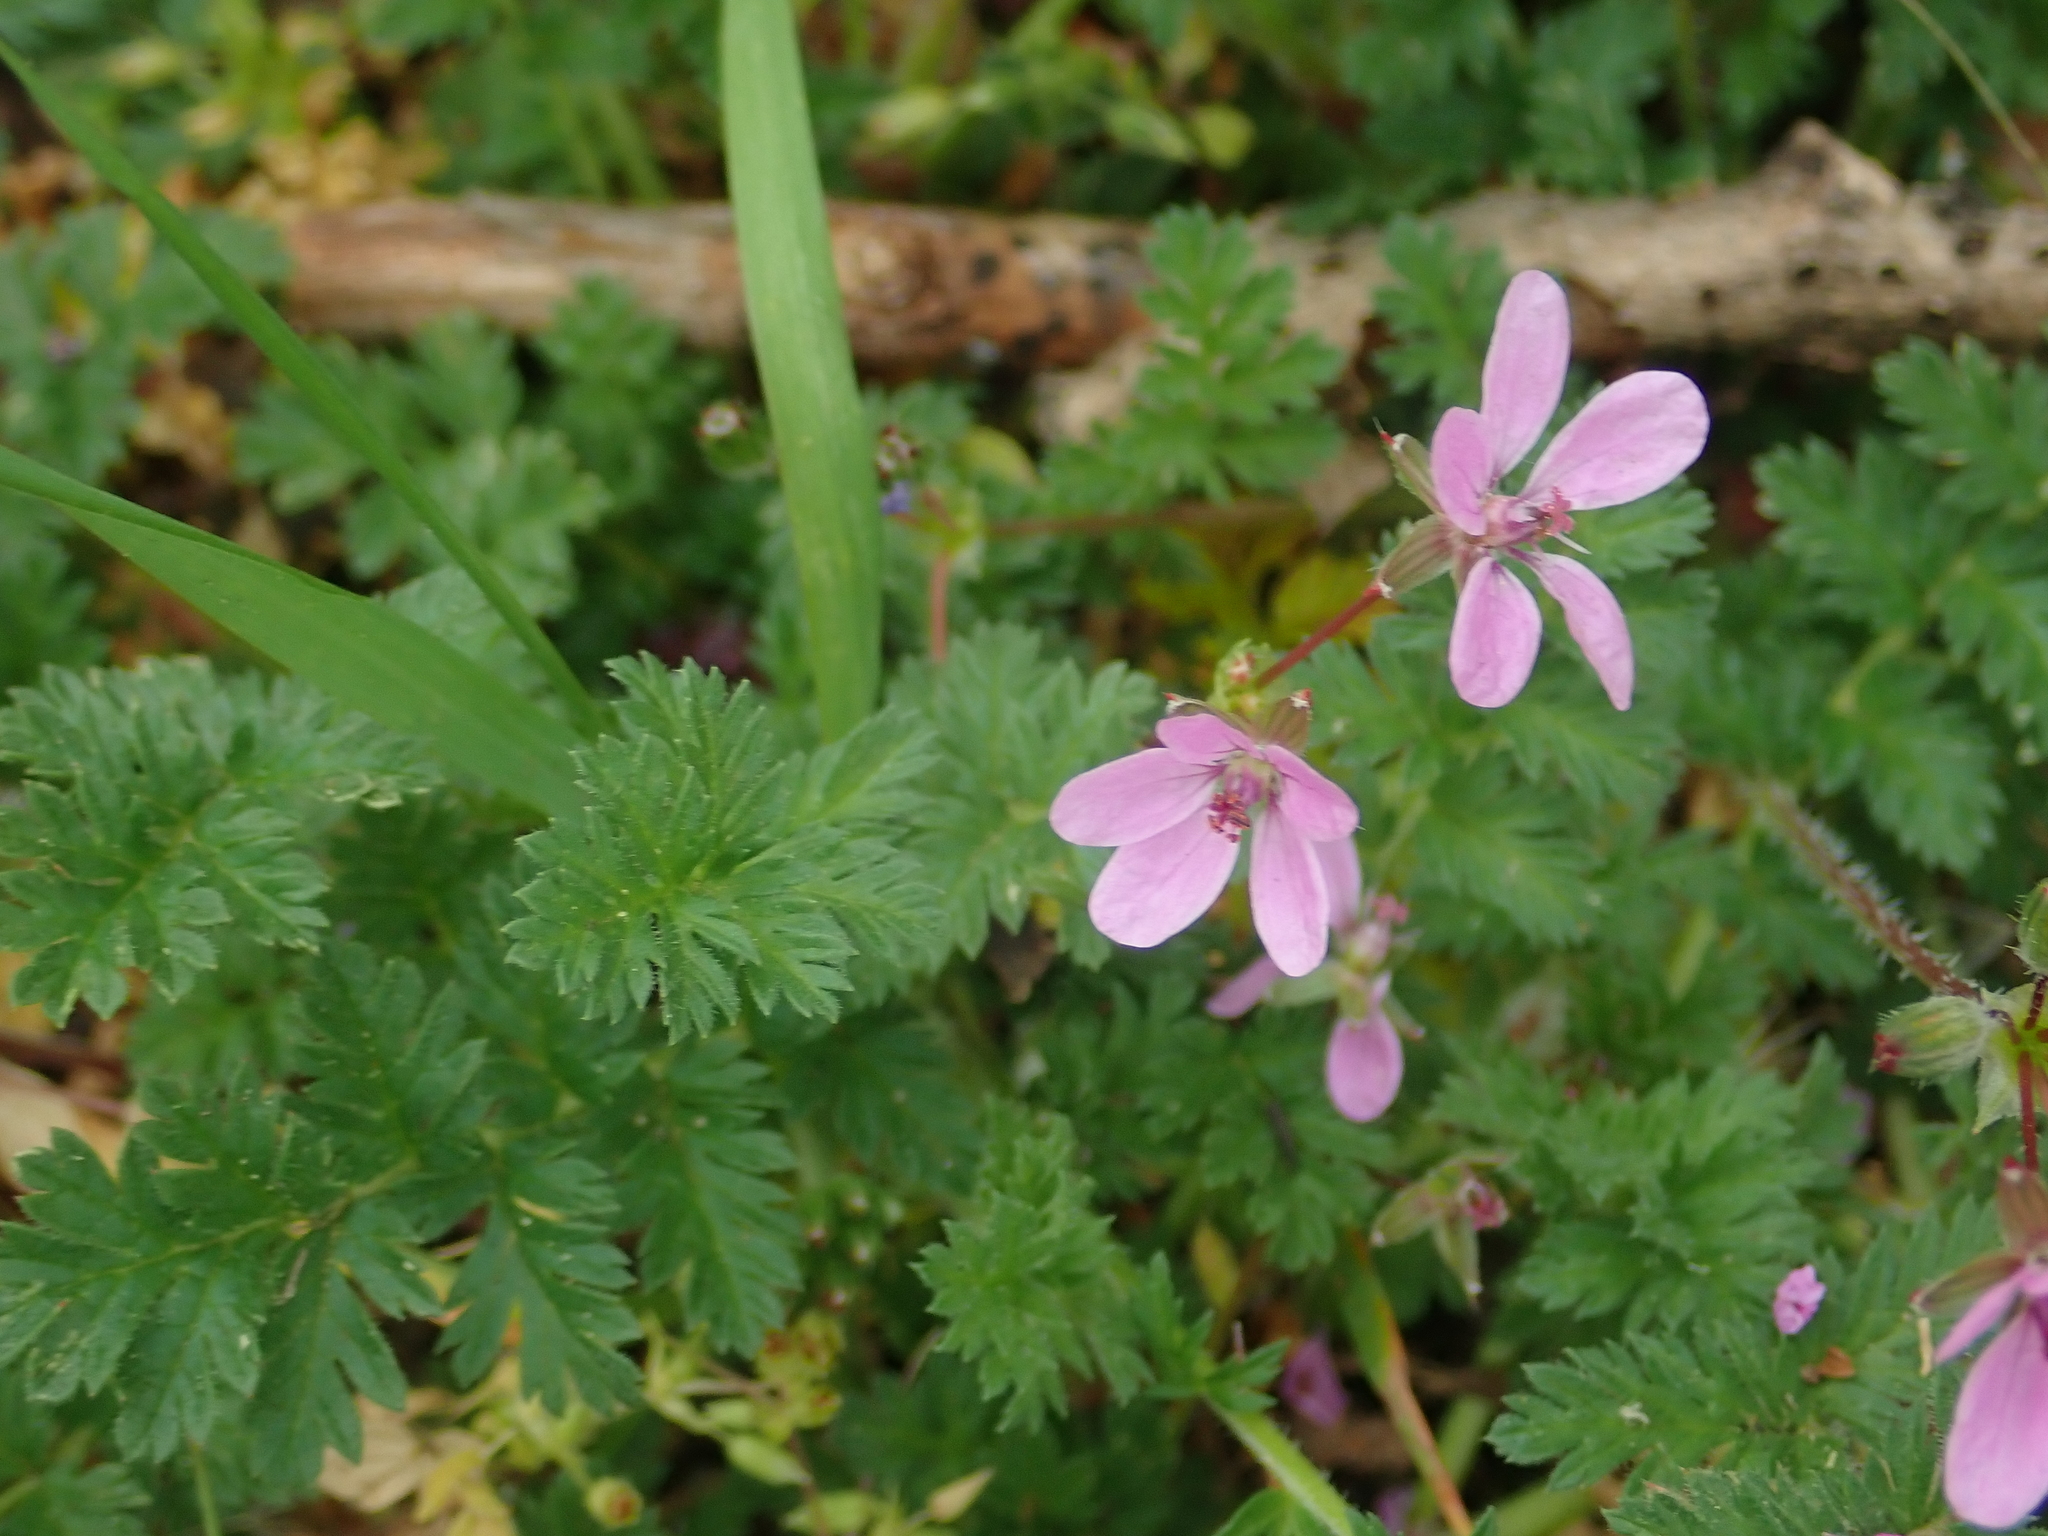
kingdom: Plantae
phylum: Tracheophyta
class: Magnoliopsida
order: Geraniales
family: Geraniaceae
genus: Erodium
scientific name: Erodium cicutarium
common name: Common stork's-bill
